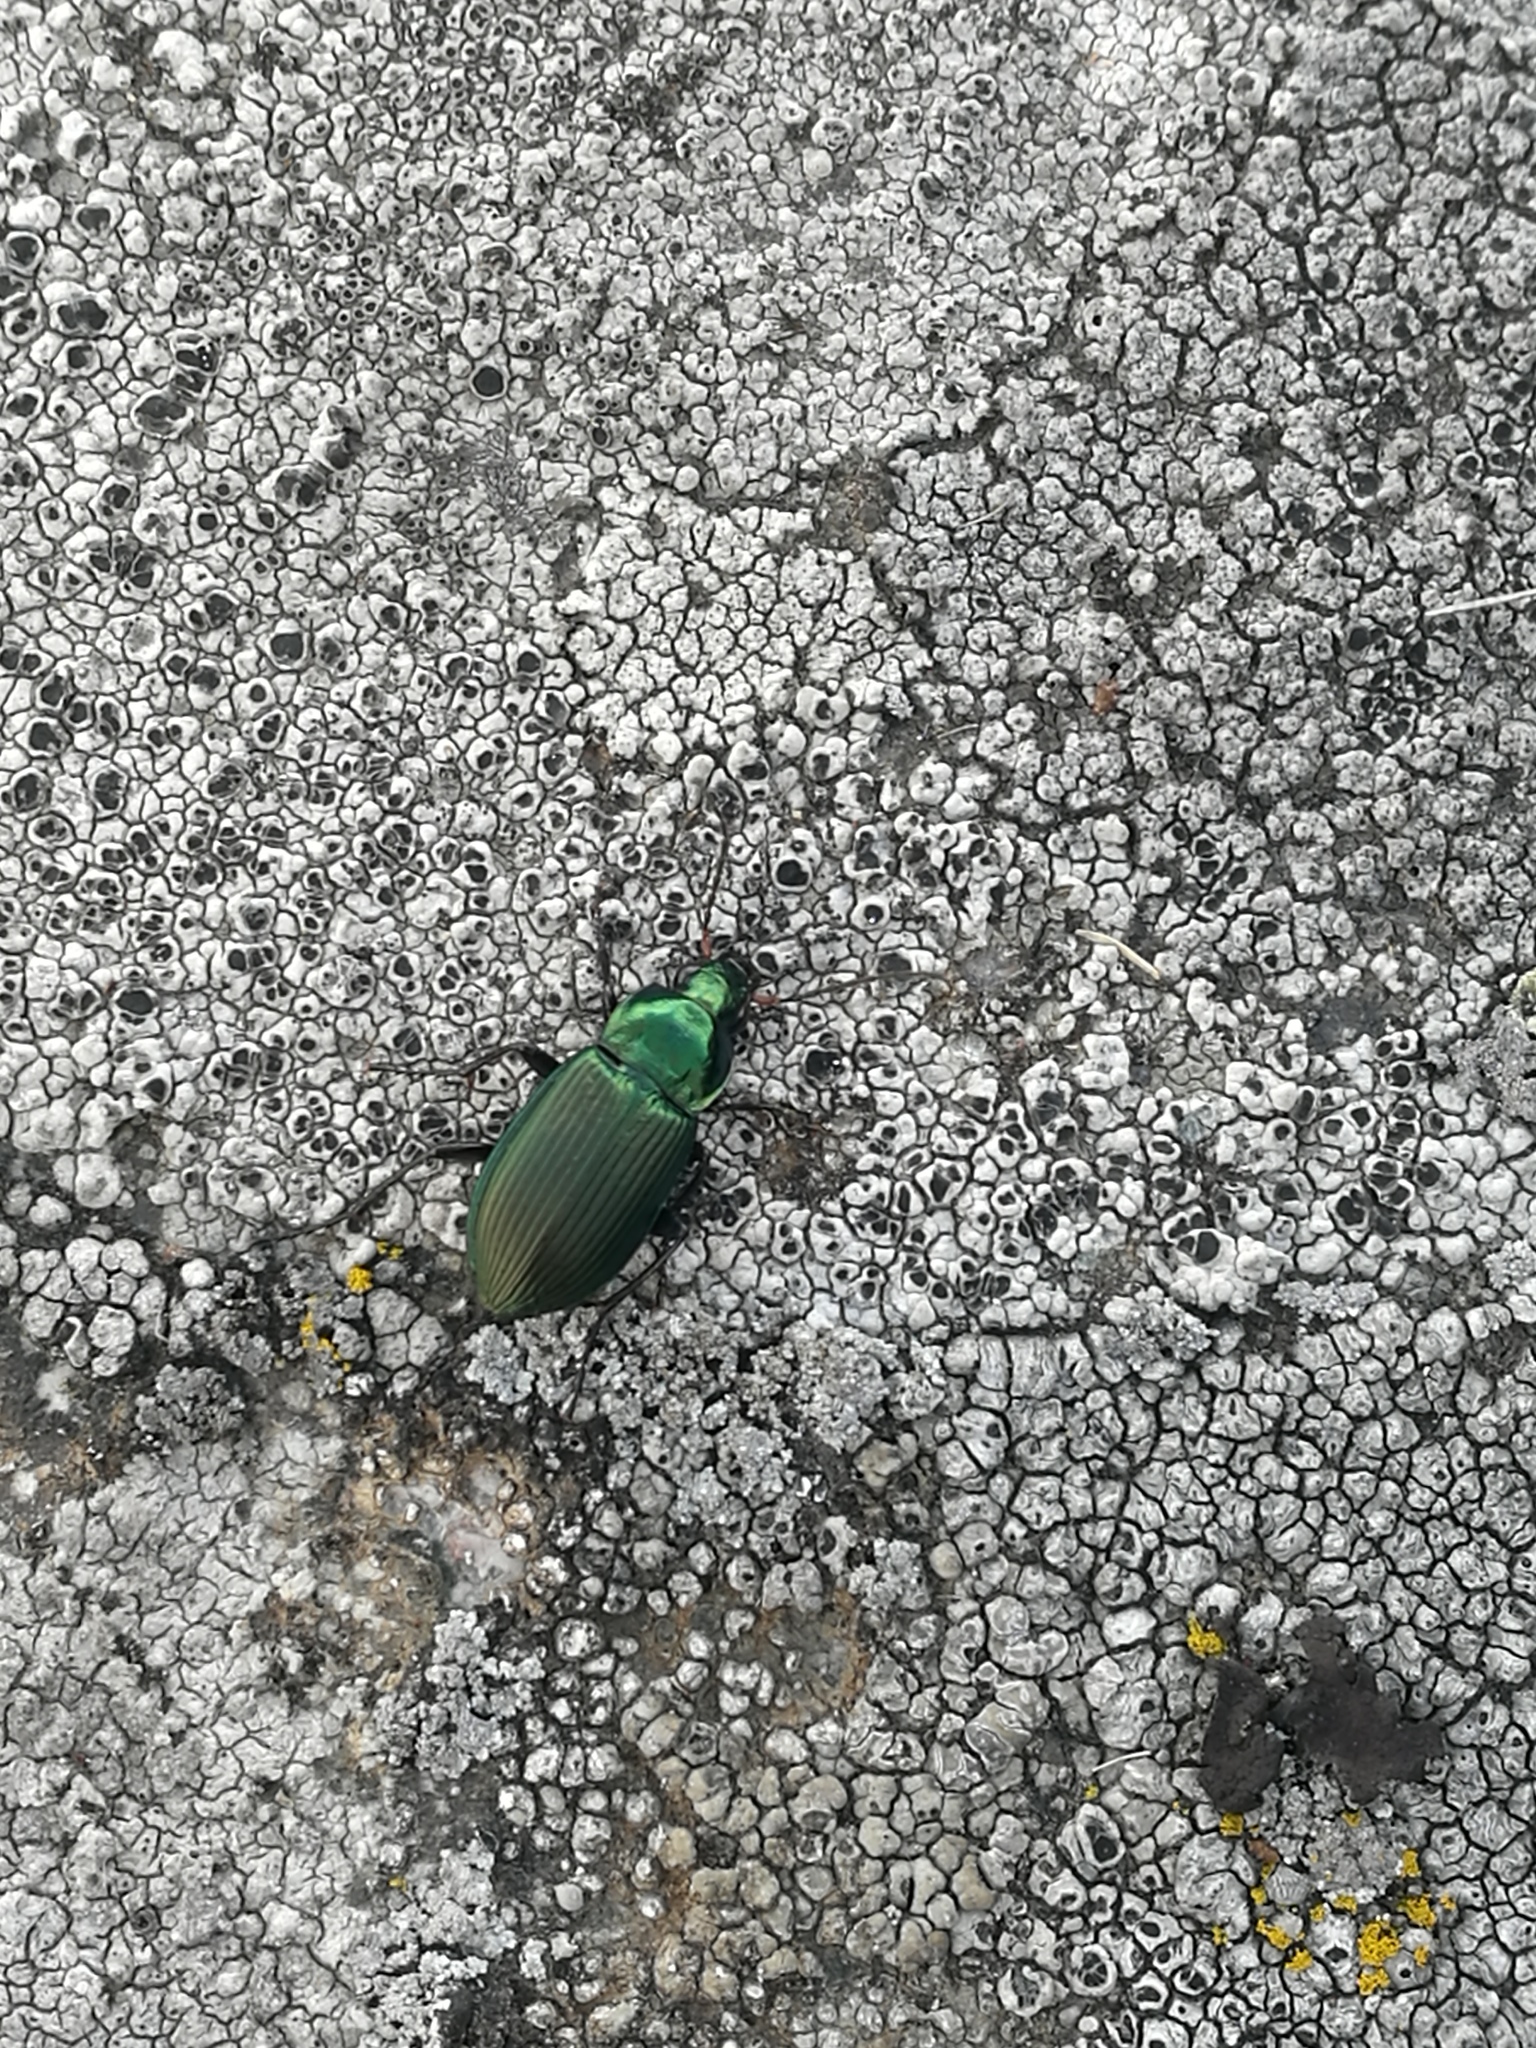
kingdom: Animalia
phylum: Arthropoda
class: Insecta
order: Coleoptera
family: Carabidae
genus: Poecilus
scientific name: Poecilus cupreus
